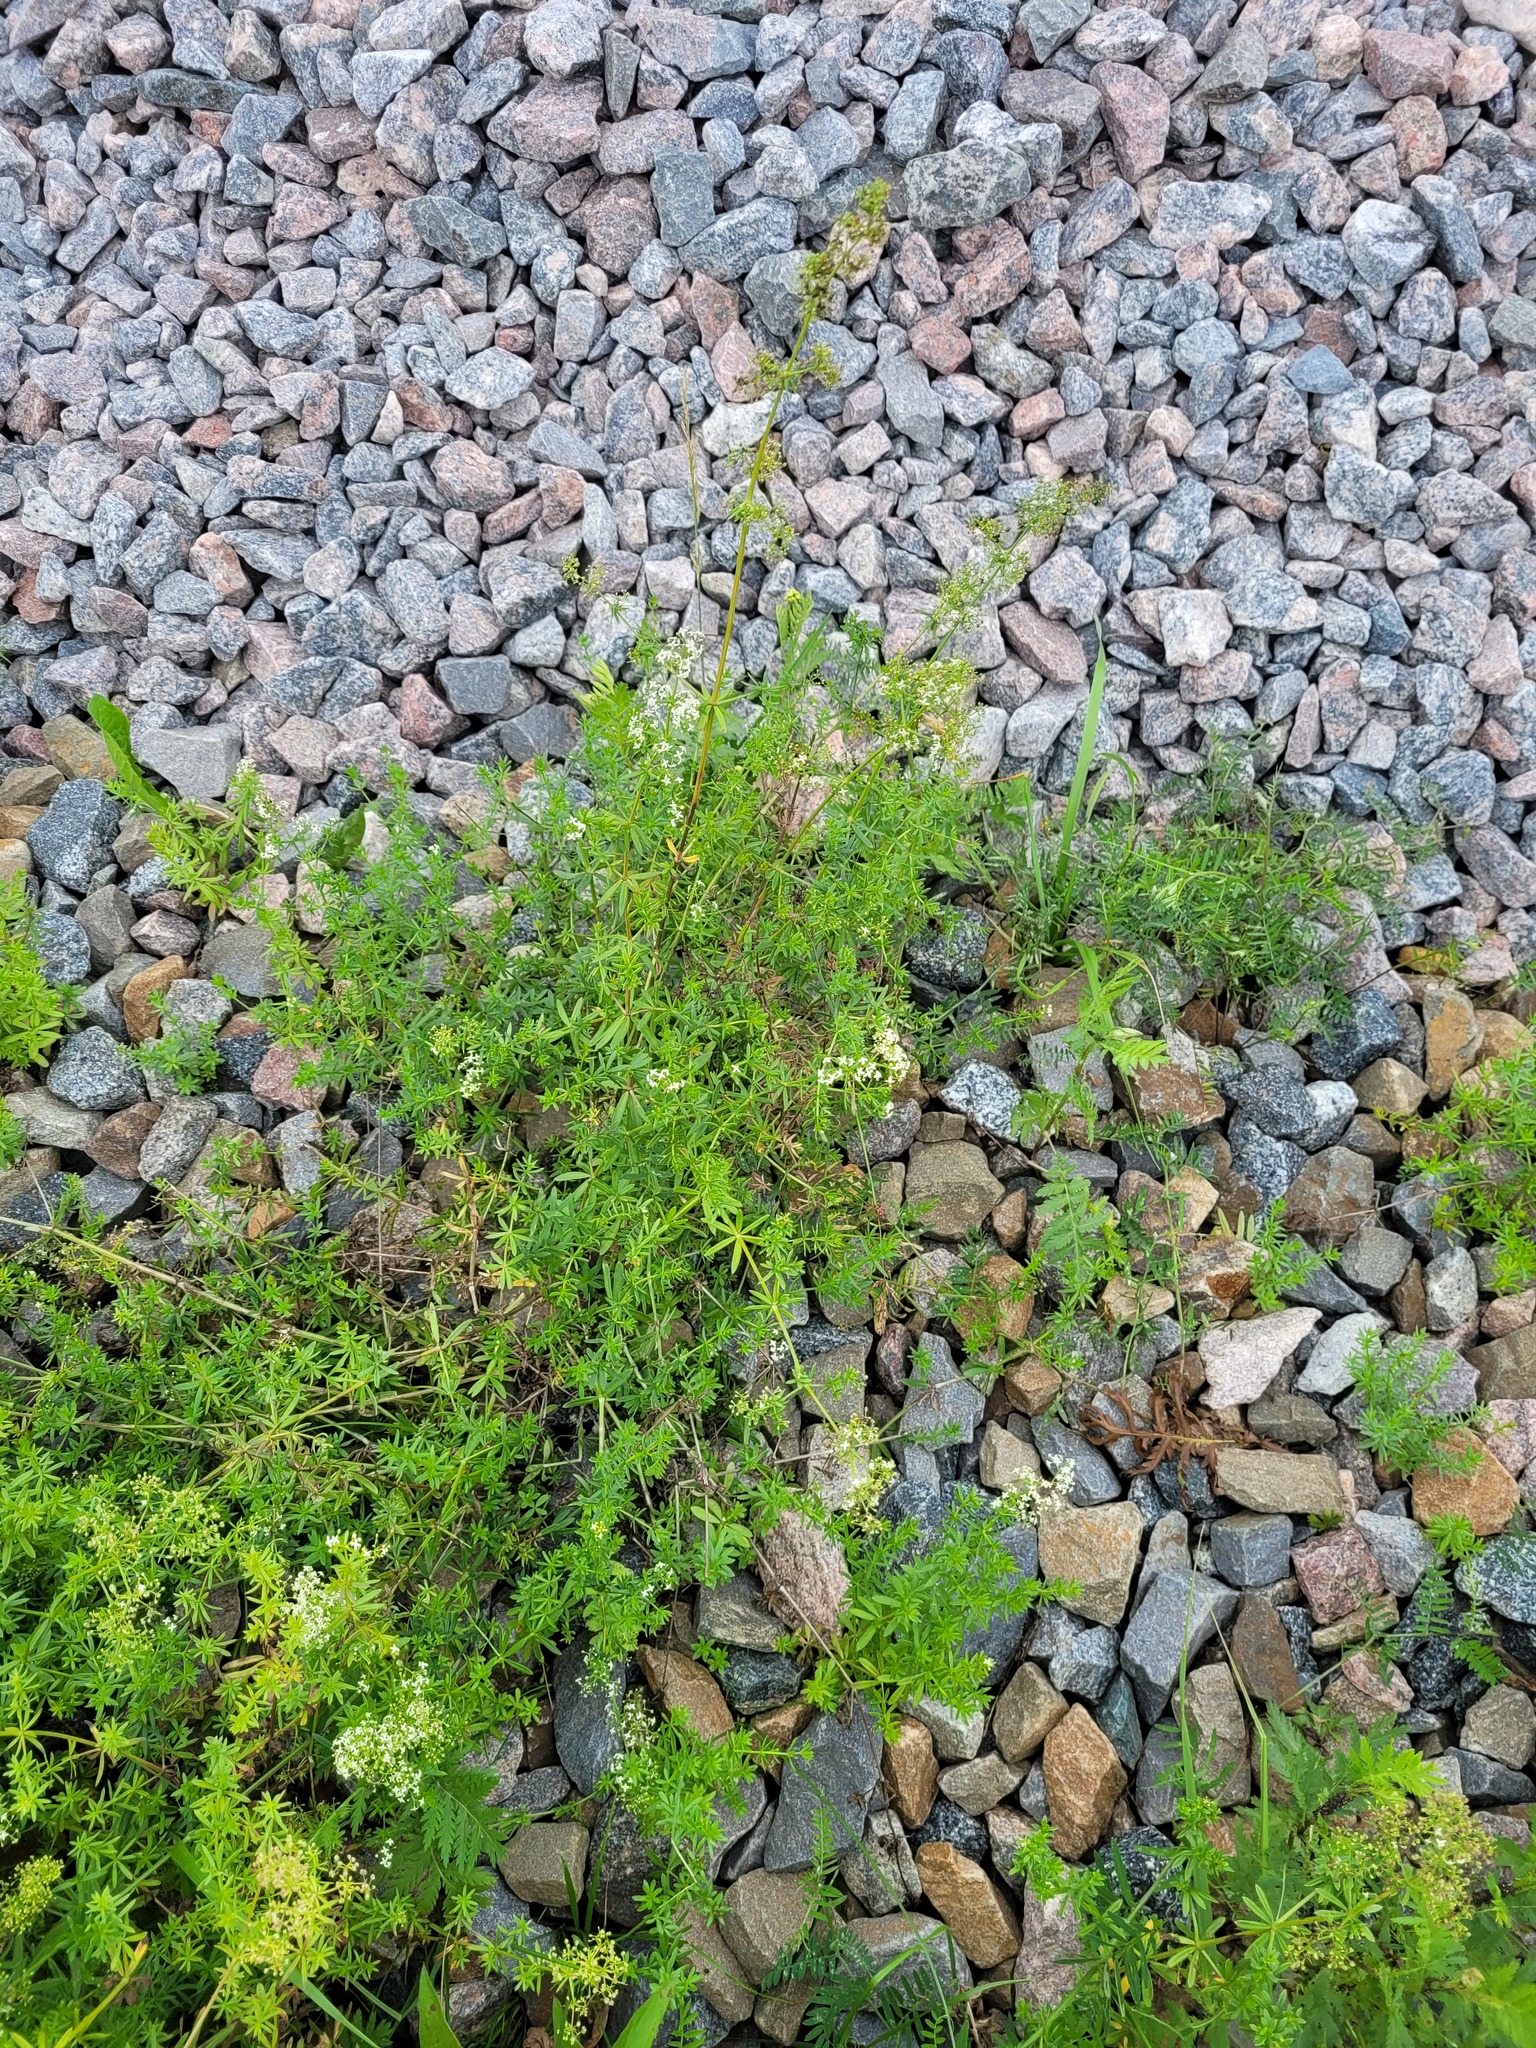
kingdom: Plantae
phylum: Tracheophyta
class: Magnoliopsida
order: Gentianales
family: Rubiaceae
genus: Galium
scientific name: Galium mollugo
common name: Hedge bedstraw
